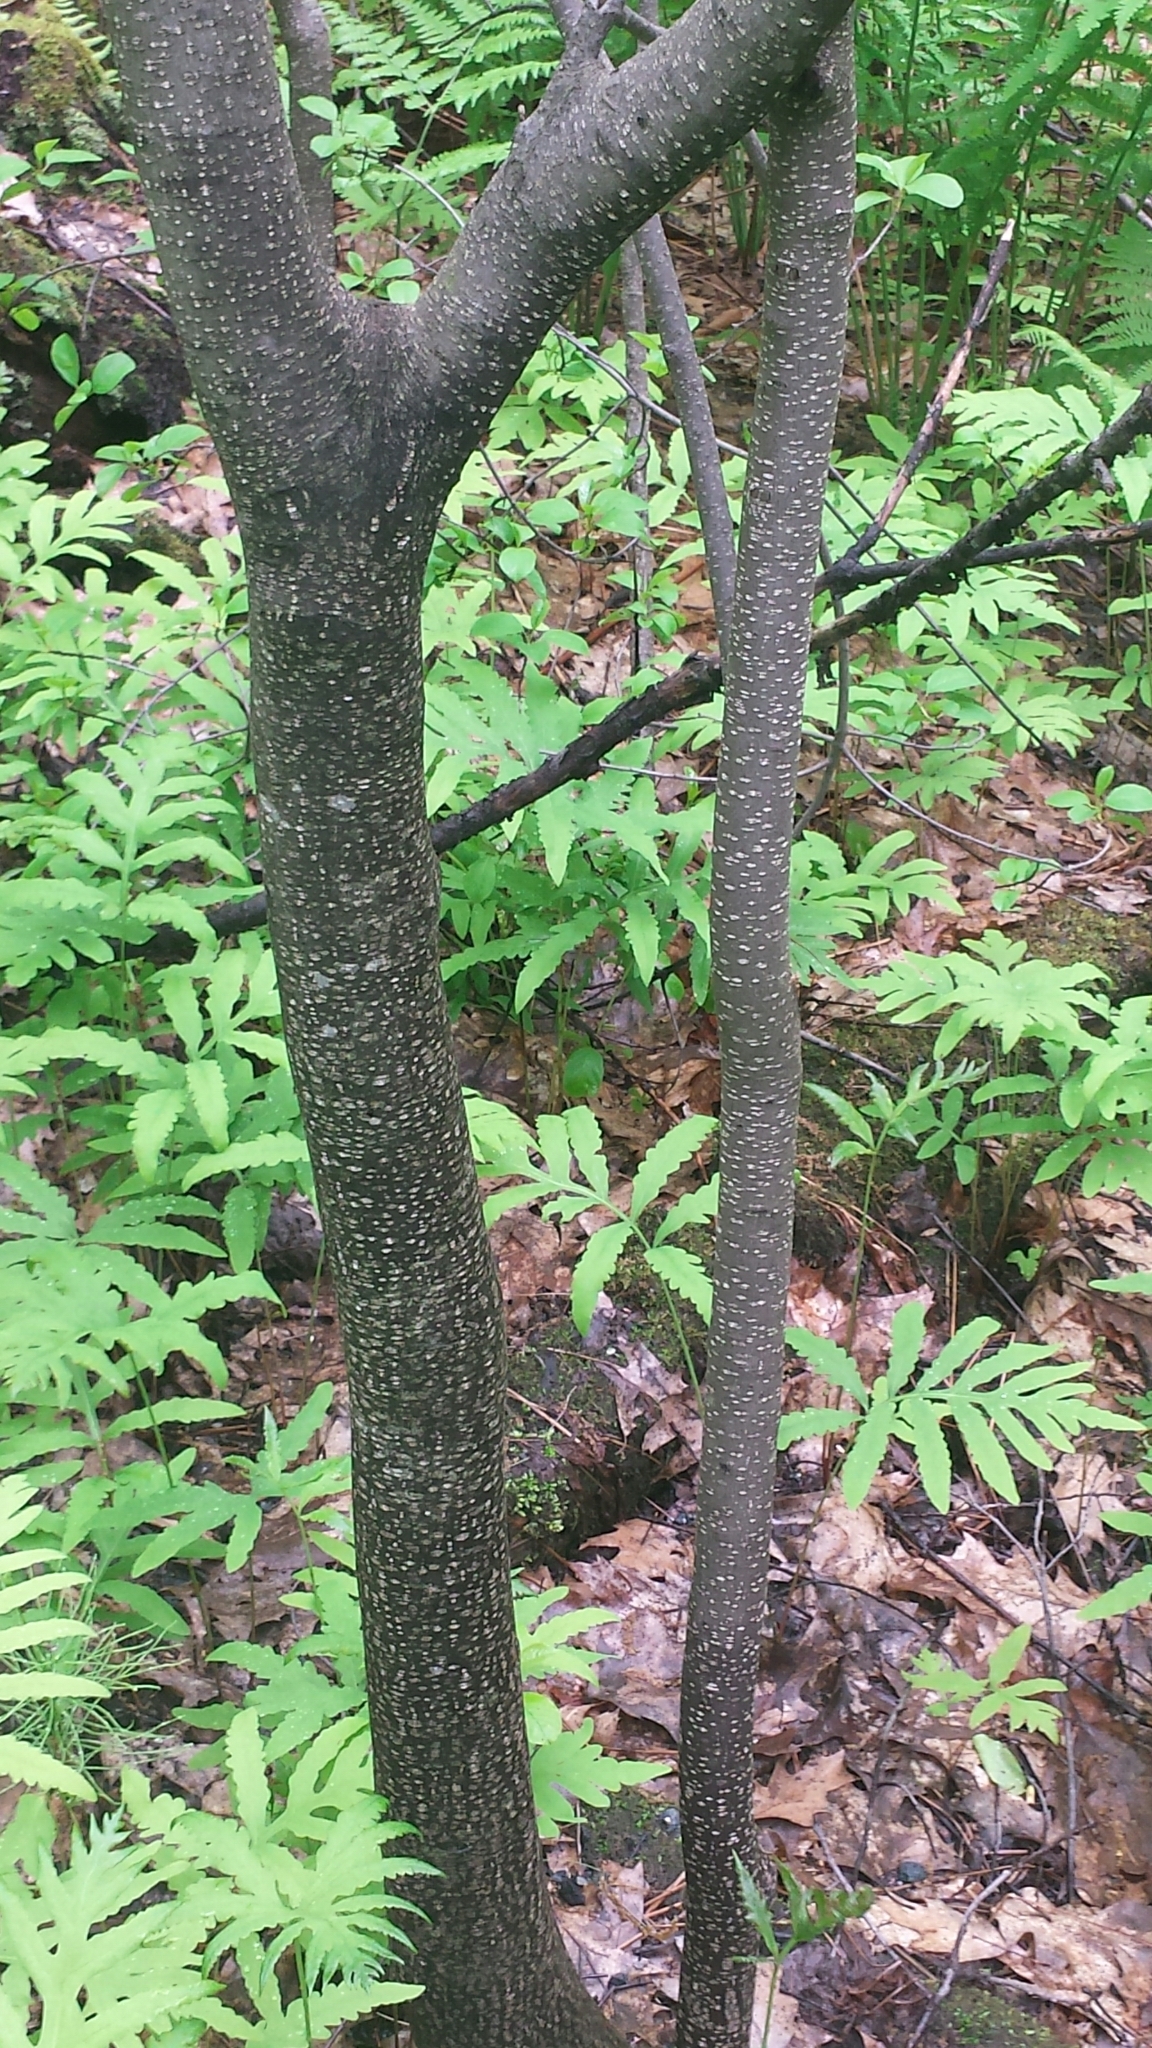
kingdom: Plantae
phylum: Tracheophyta
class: Magnoliopsida
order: Rosales
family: Rhamnaceae
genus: Frangula
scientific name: Frangula alnus
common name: Alder buckthorn
